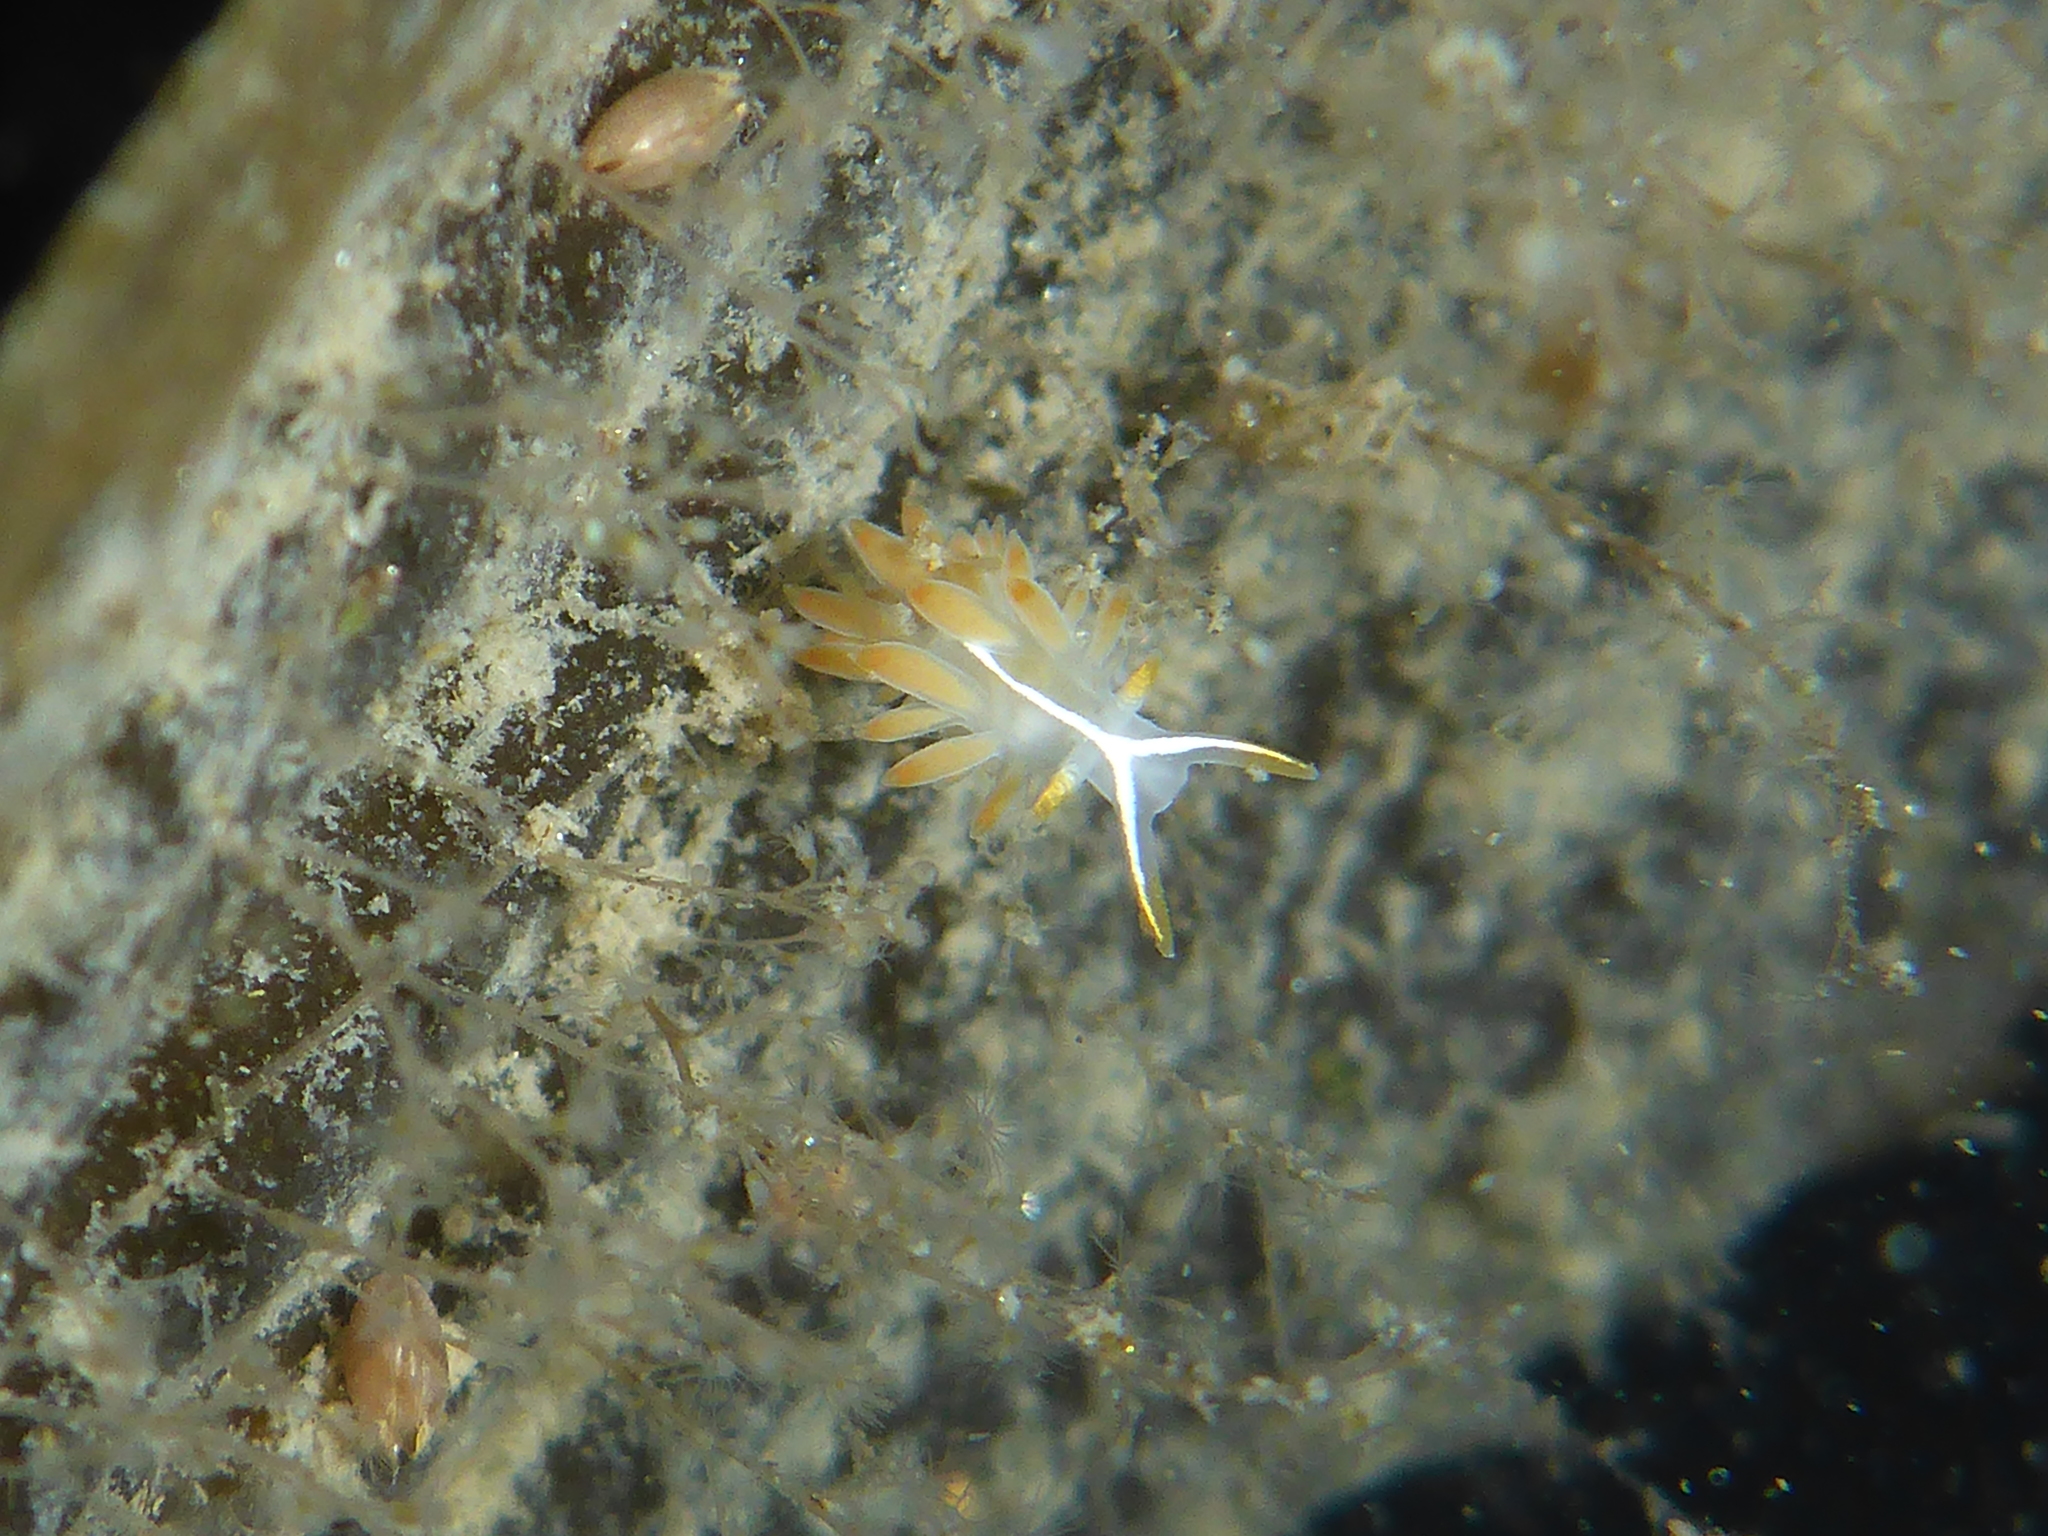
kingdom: Animalia
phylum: Mollusca
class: Gastropoda
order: Nudibranchia
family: Coryphellidae
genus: Coryphella
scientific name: Coryphella trilineata
